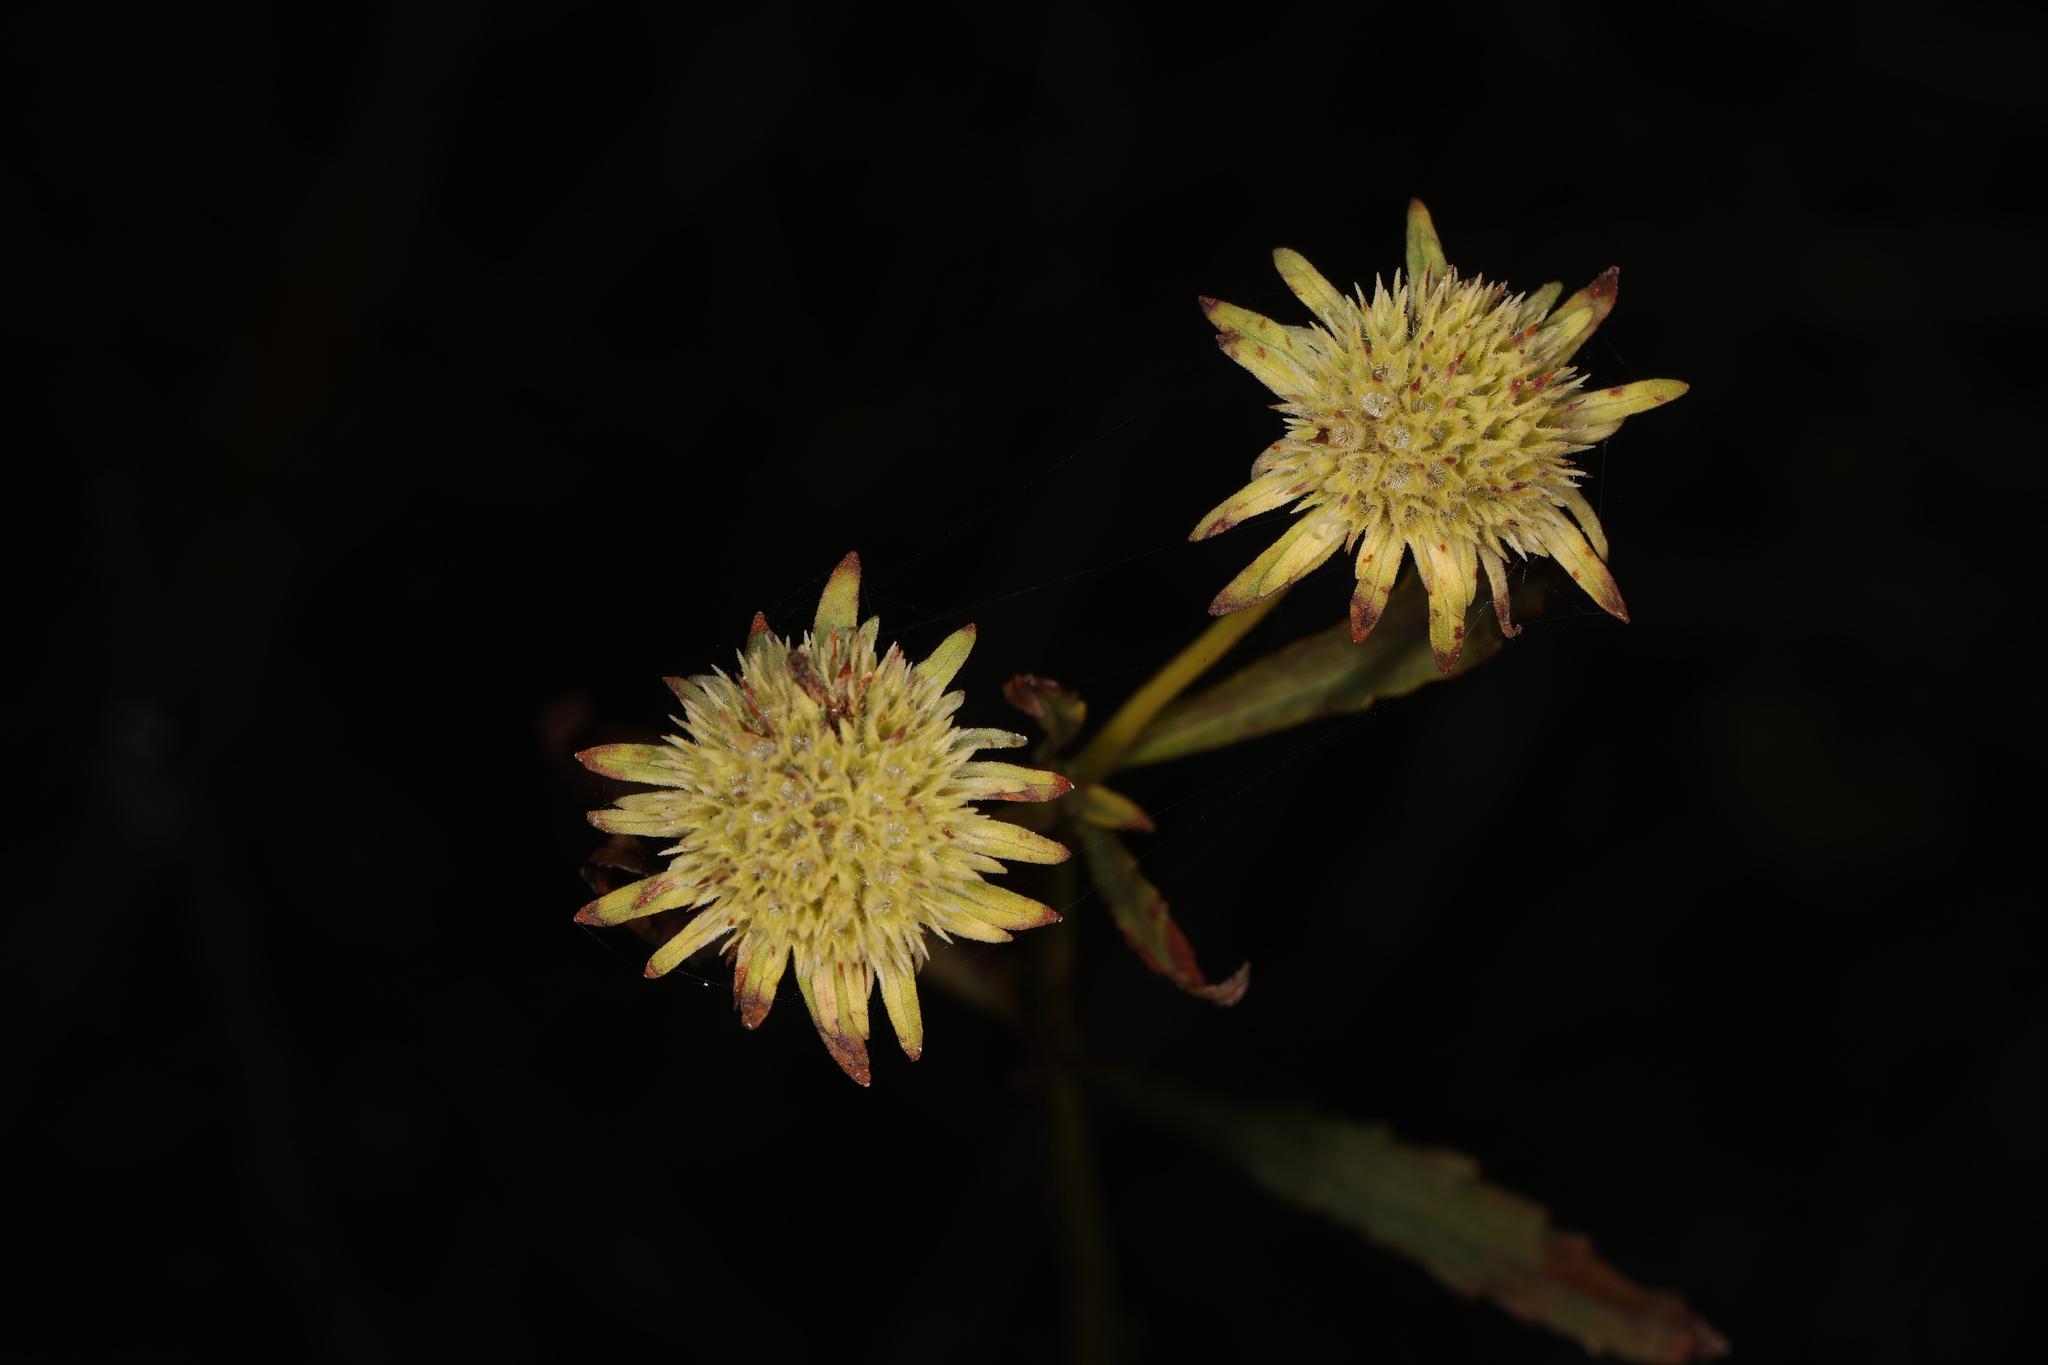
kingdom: Plantae
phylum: Tracheophyta
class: Magnoliopsida
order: Lamiales
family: Lamiaceae
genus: Hyptis
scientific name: Hyptis alata
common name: Cluster bush-mint
